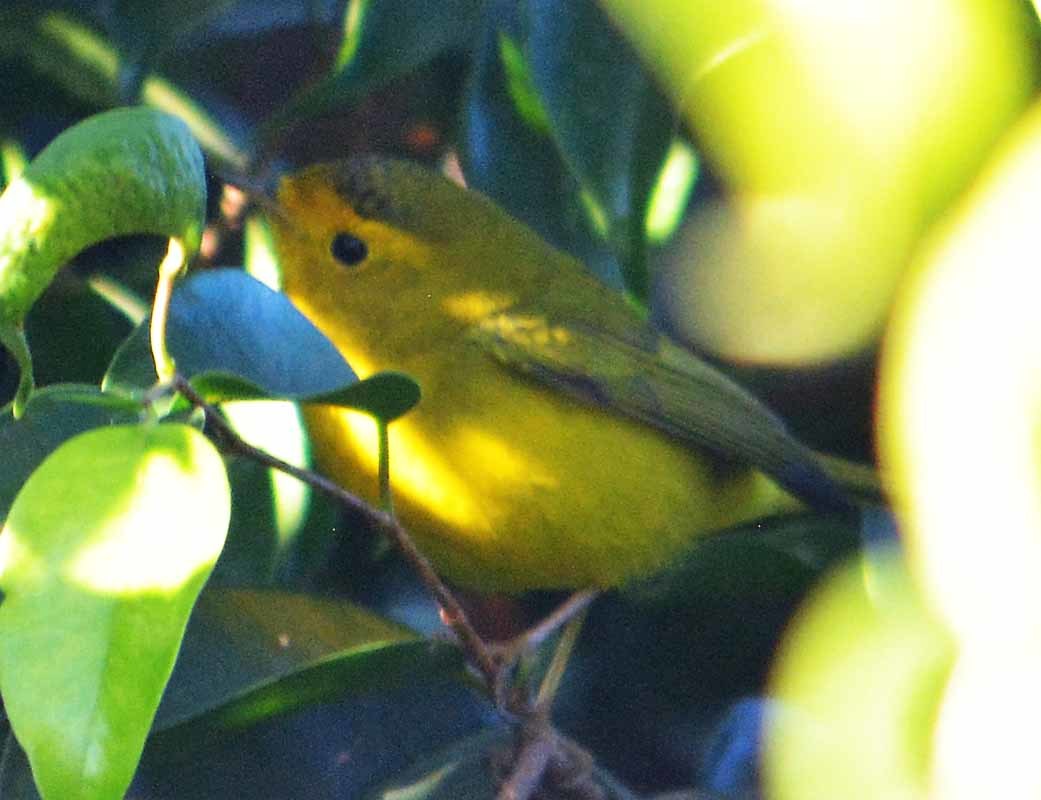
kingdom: Animalia
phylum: Chordata
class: Aves
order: Passeriformes
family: Parulidae
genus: Cardellina
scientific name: Cardellina pusilla
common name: Wilson's warbler
